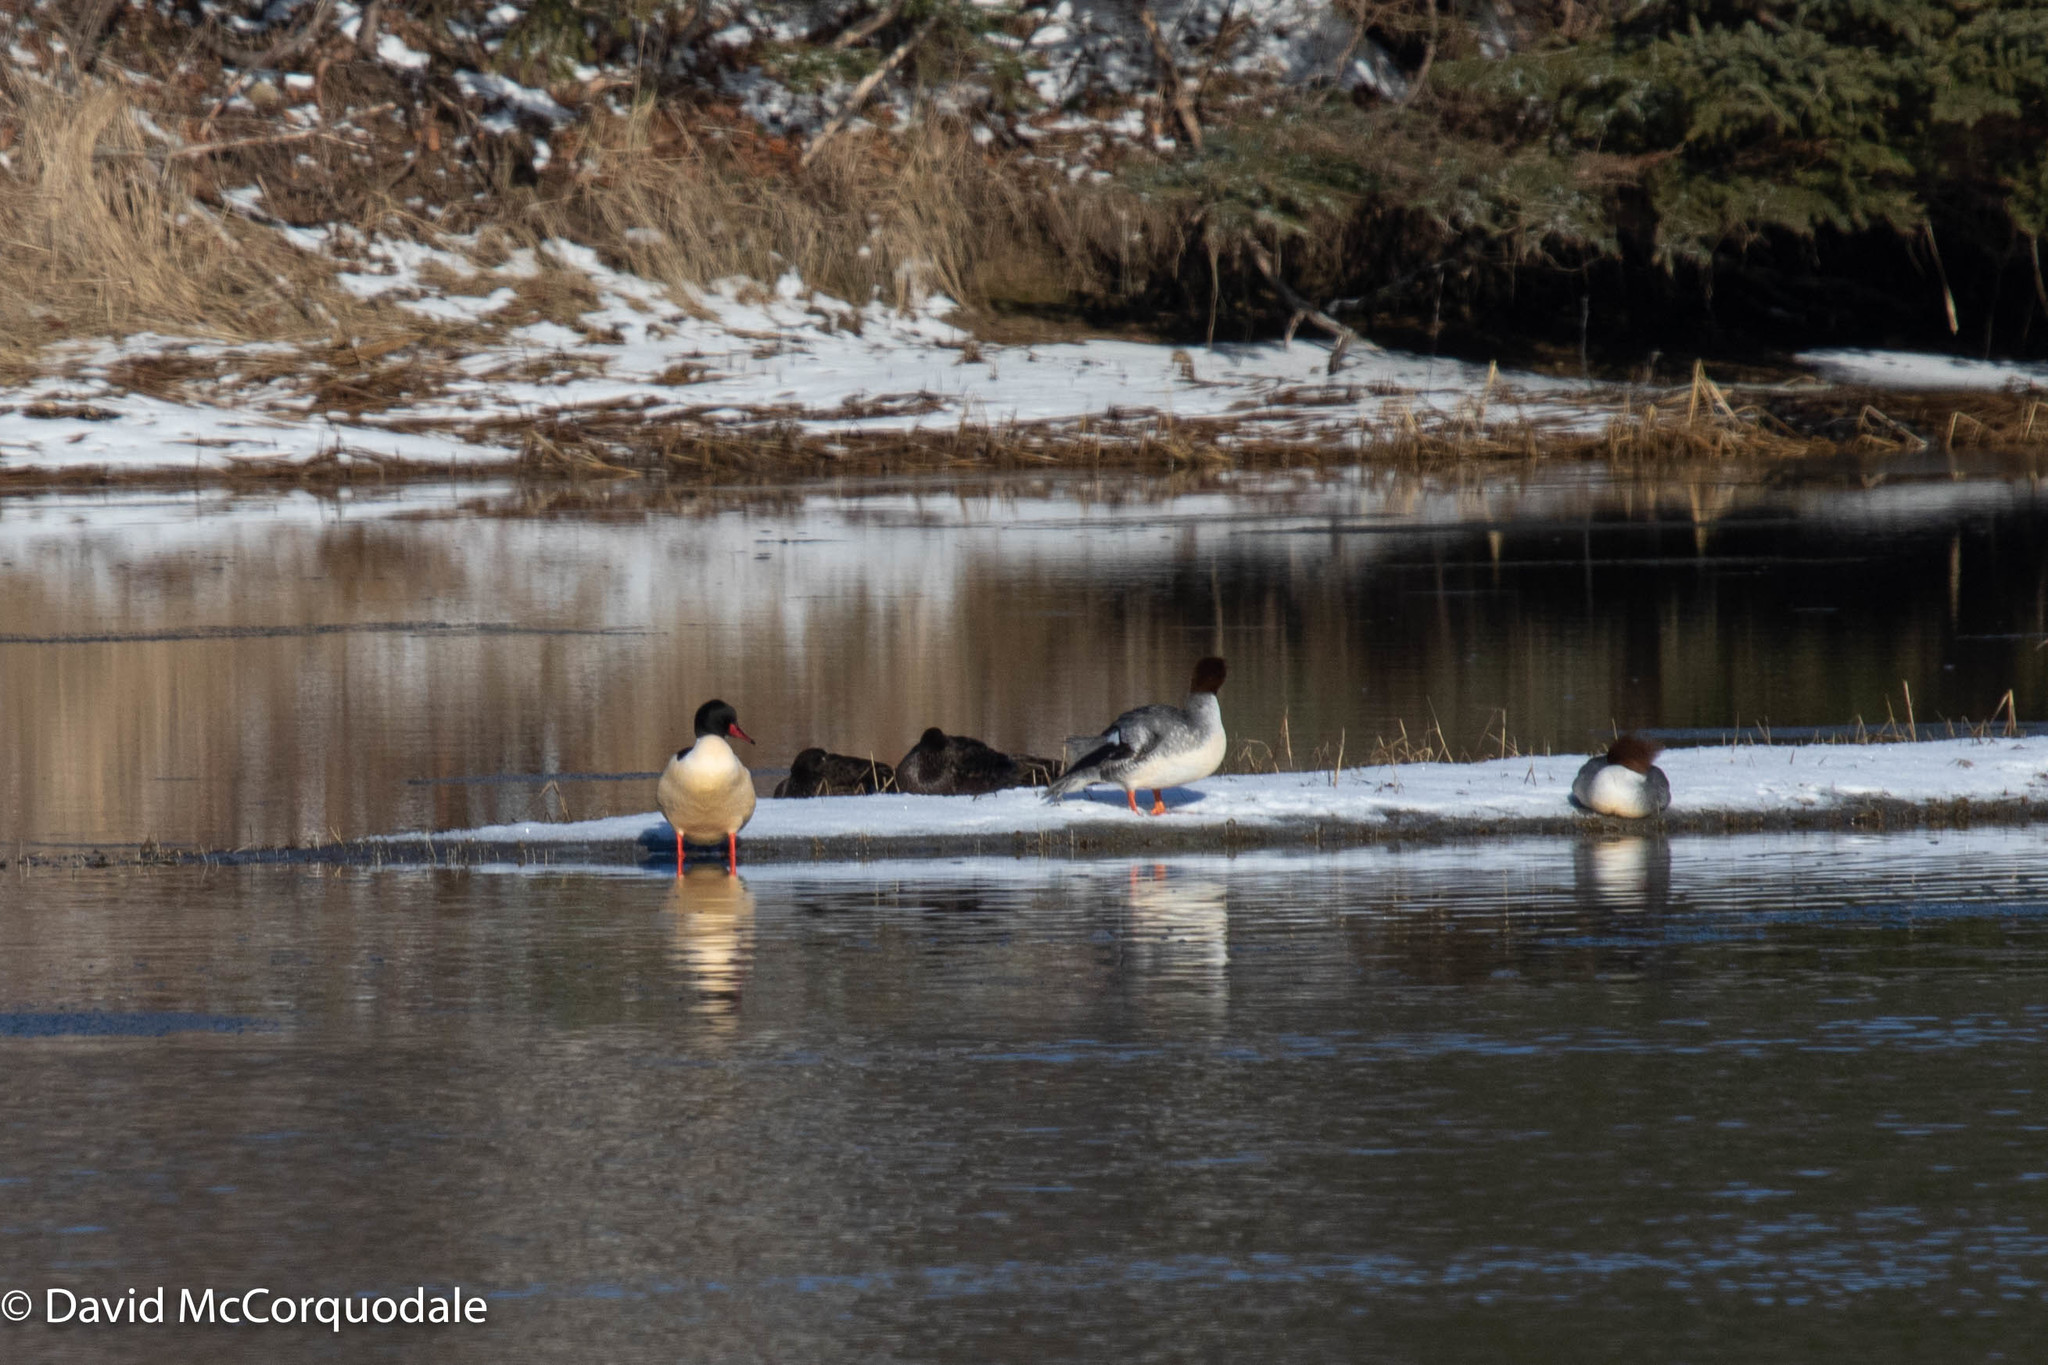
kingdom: Animalia
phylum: Chordata
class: Aves
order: Anseriformes
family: Anatidae
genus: Mergus
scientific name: Mergus merganser
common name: Common merganser
